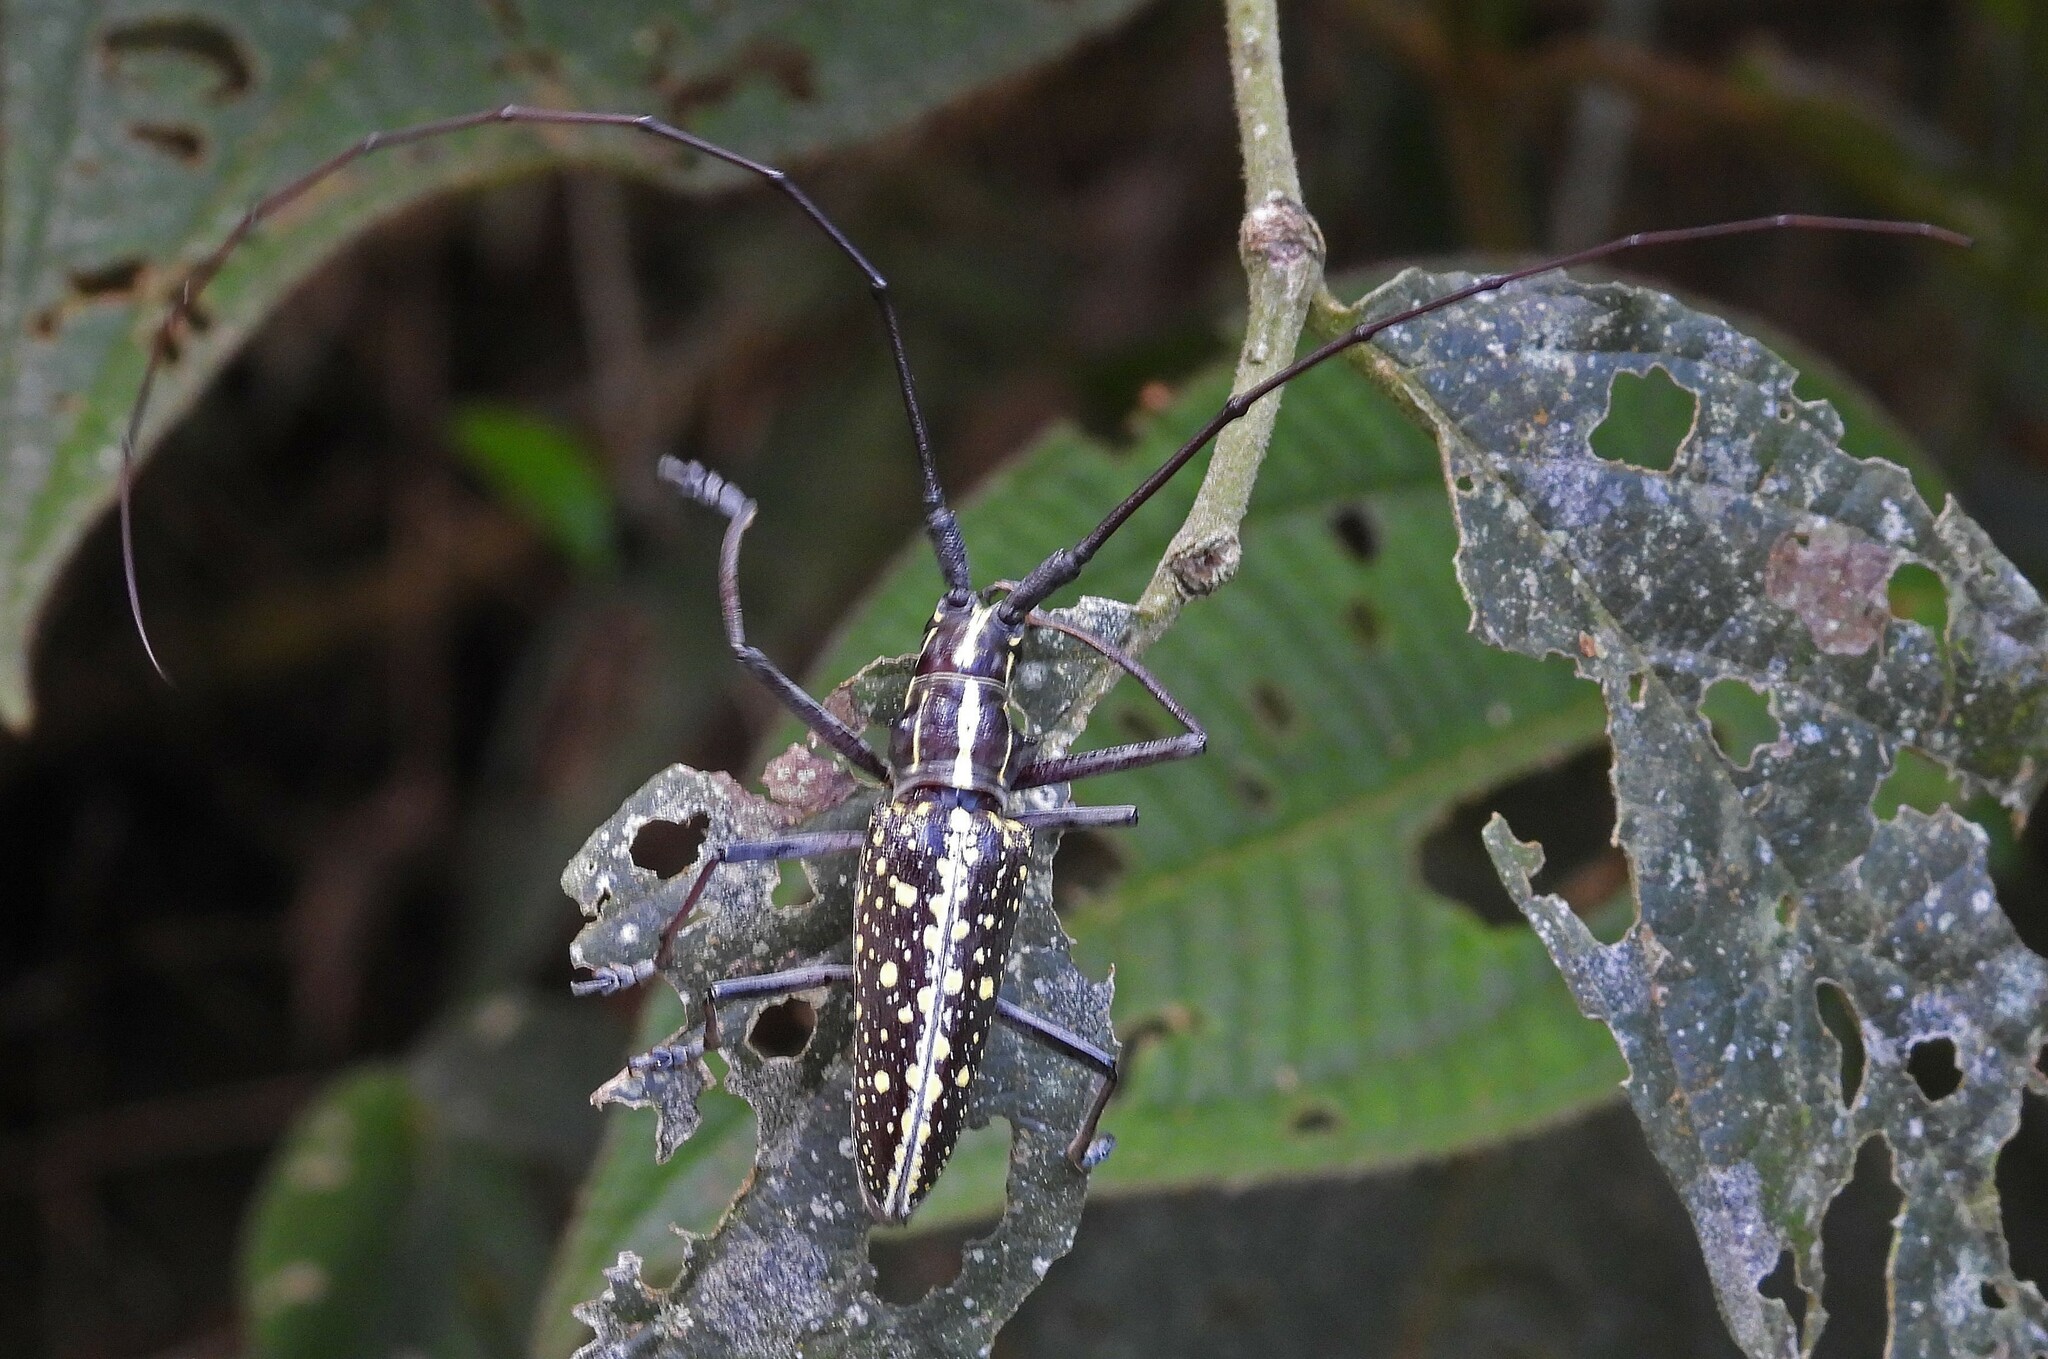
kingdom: Animalia
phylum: Arthropoda
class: Insecta
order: Coleoptera
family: Cerambycidae
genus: Taeniotes
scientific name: Taeniotes amazonum
